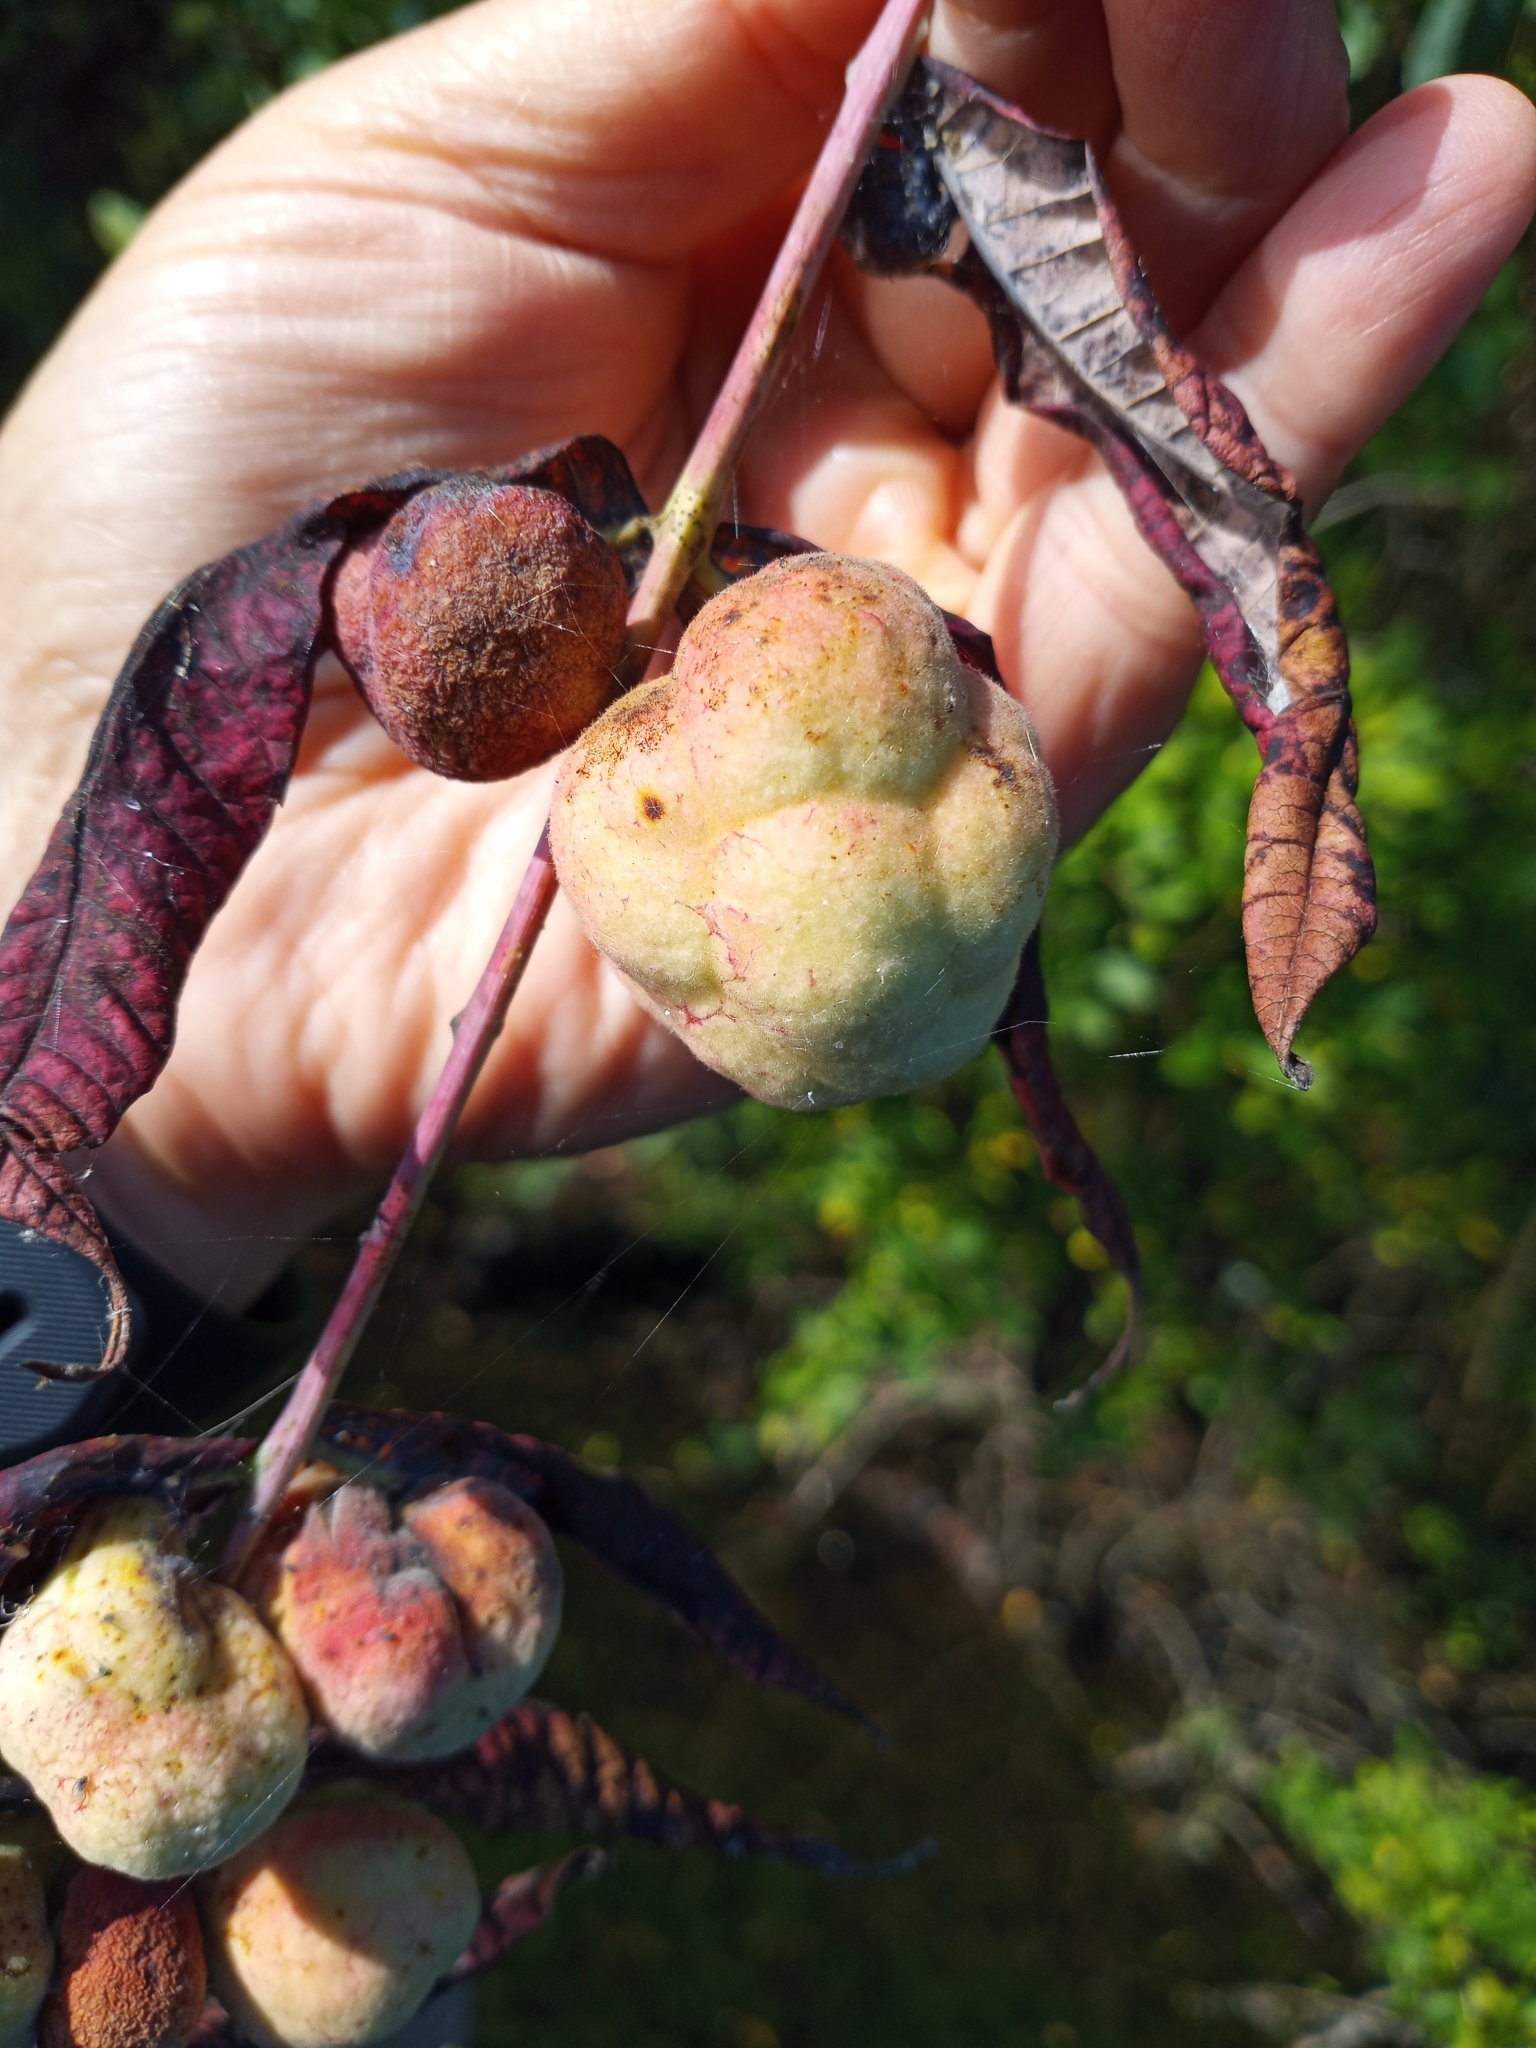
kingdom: Animalia
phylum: Arthropoda
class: Insecta
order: Hemiptera
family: Aphididae
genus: Melaphis
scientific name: Melaphis rhois
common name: Sumac gall aphid
